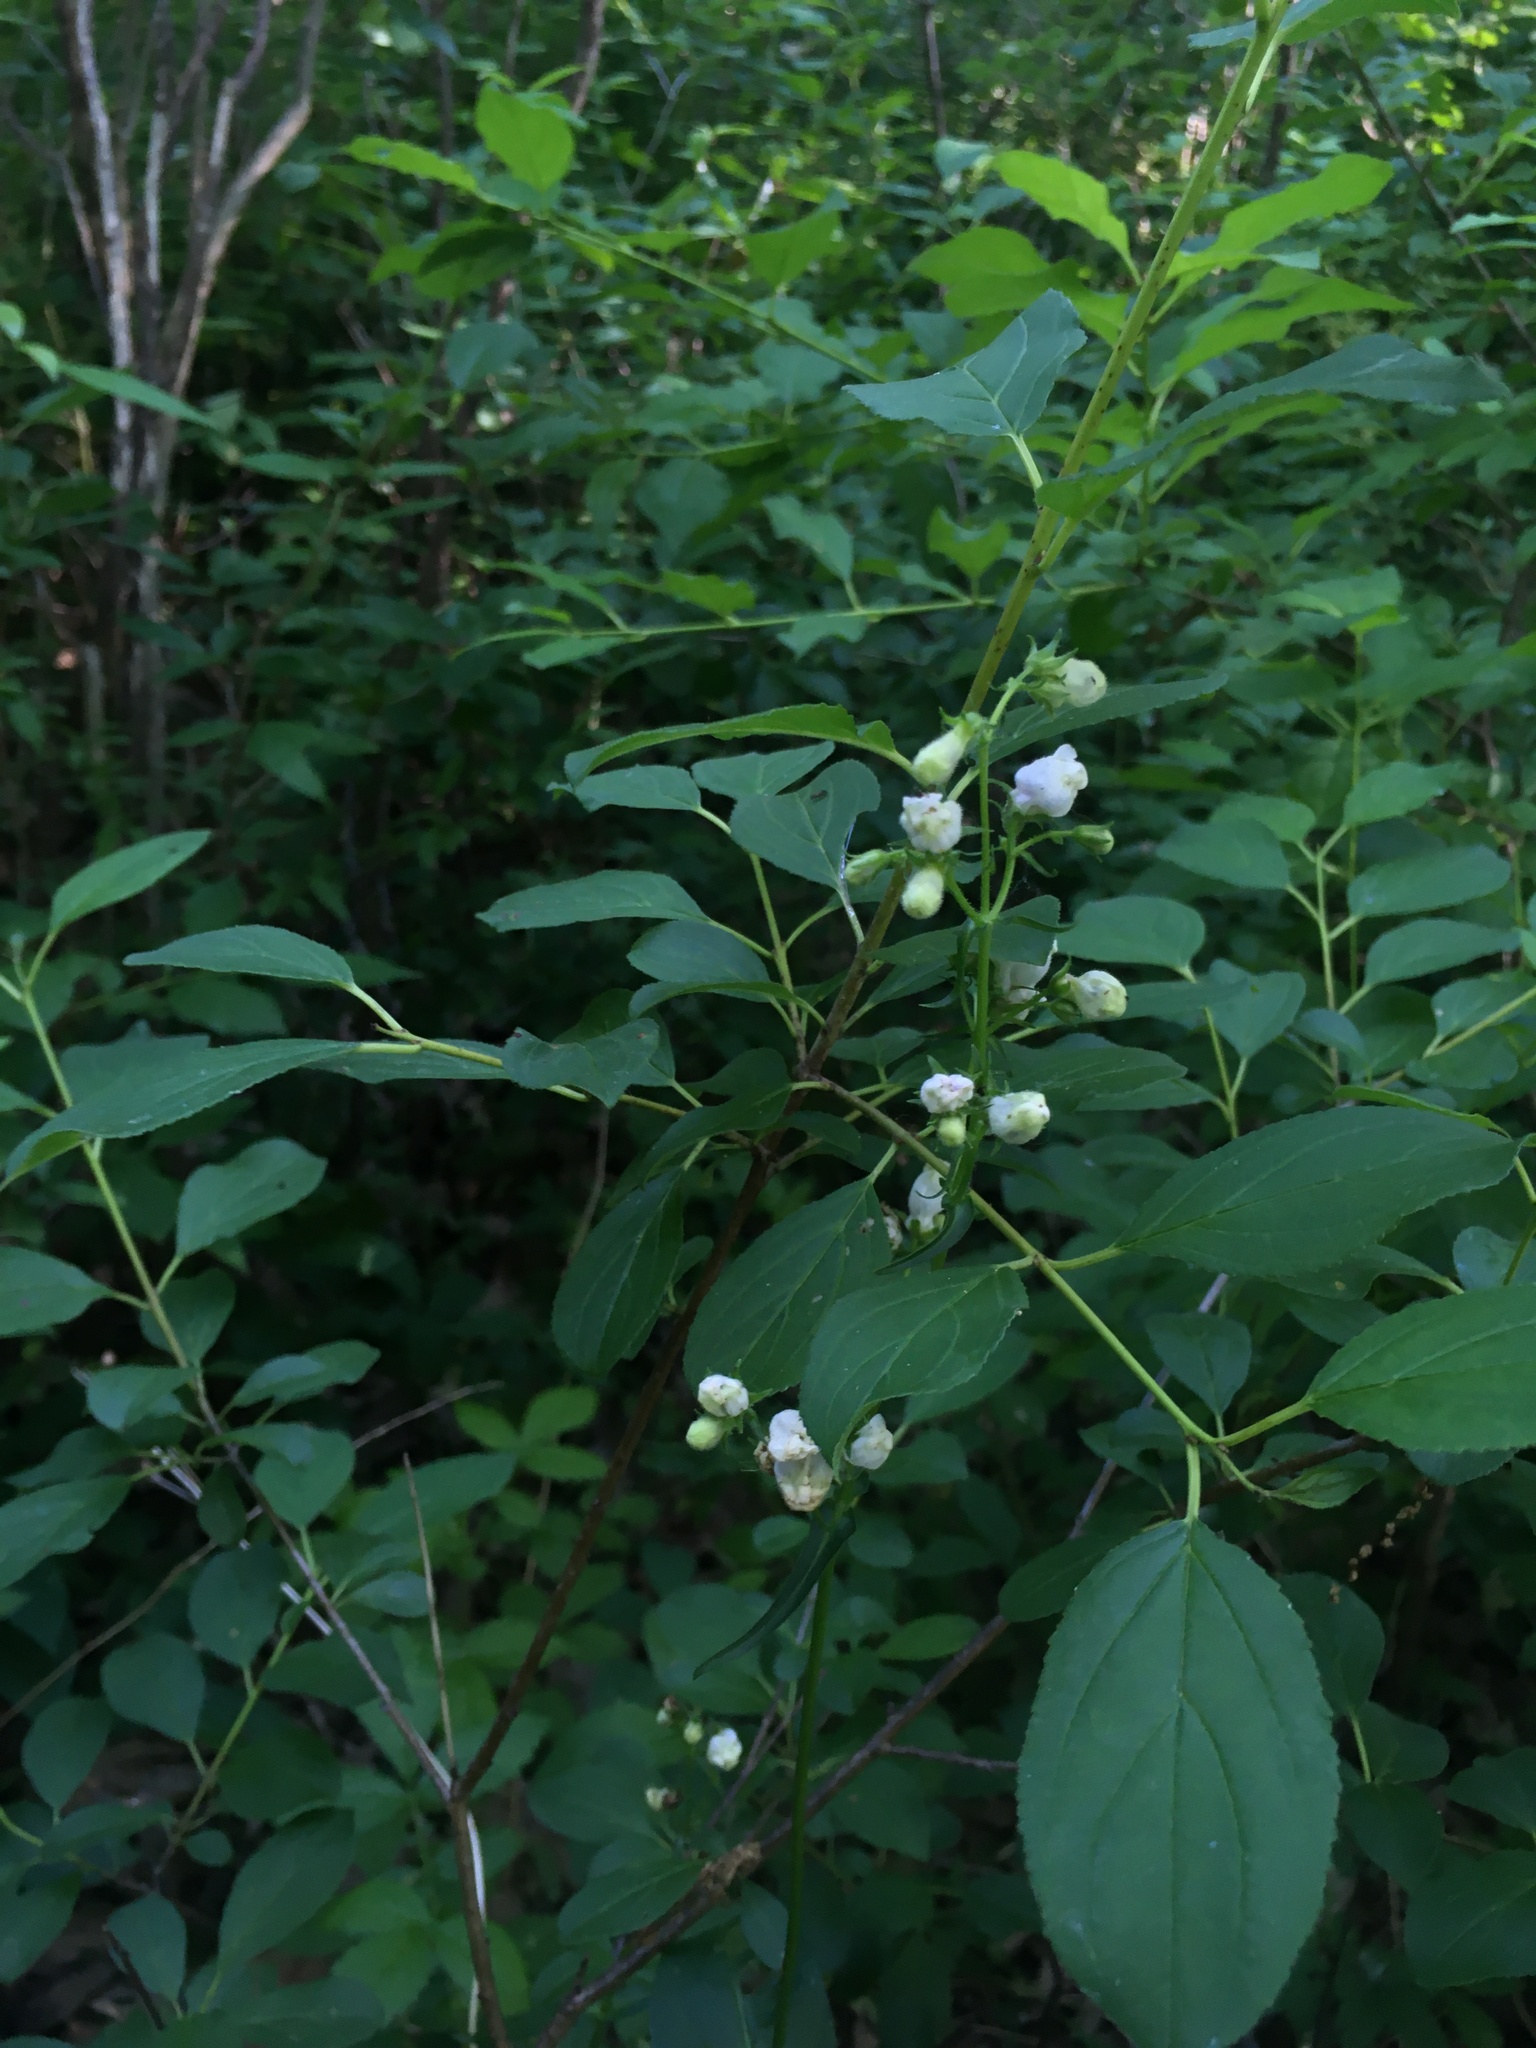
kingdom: Plantae
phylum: Tracheophyta
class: Magnoliopsida
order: Lamiales
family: Plantaginaceae
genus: Penstemon
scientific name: Penstemon digitalis
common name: Foxglove beardtongue
